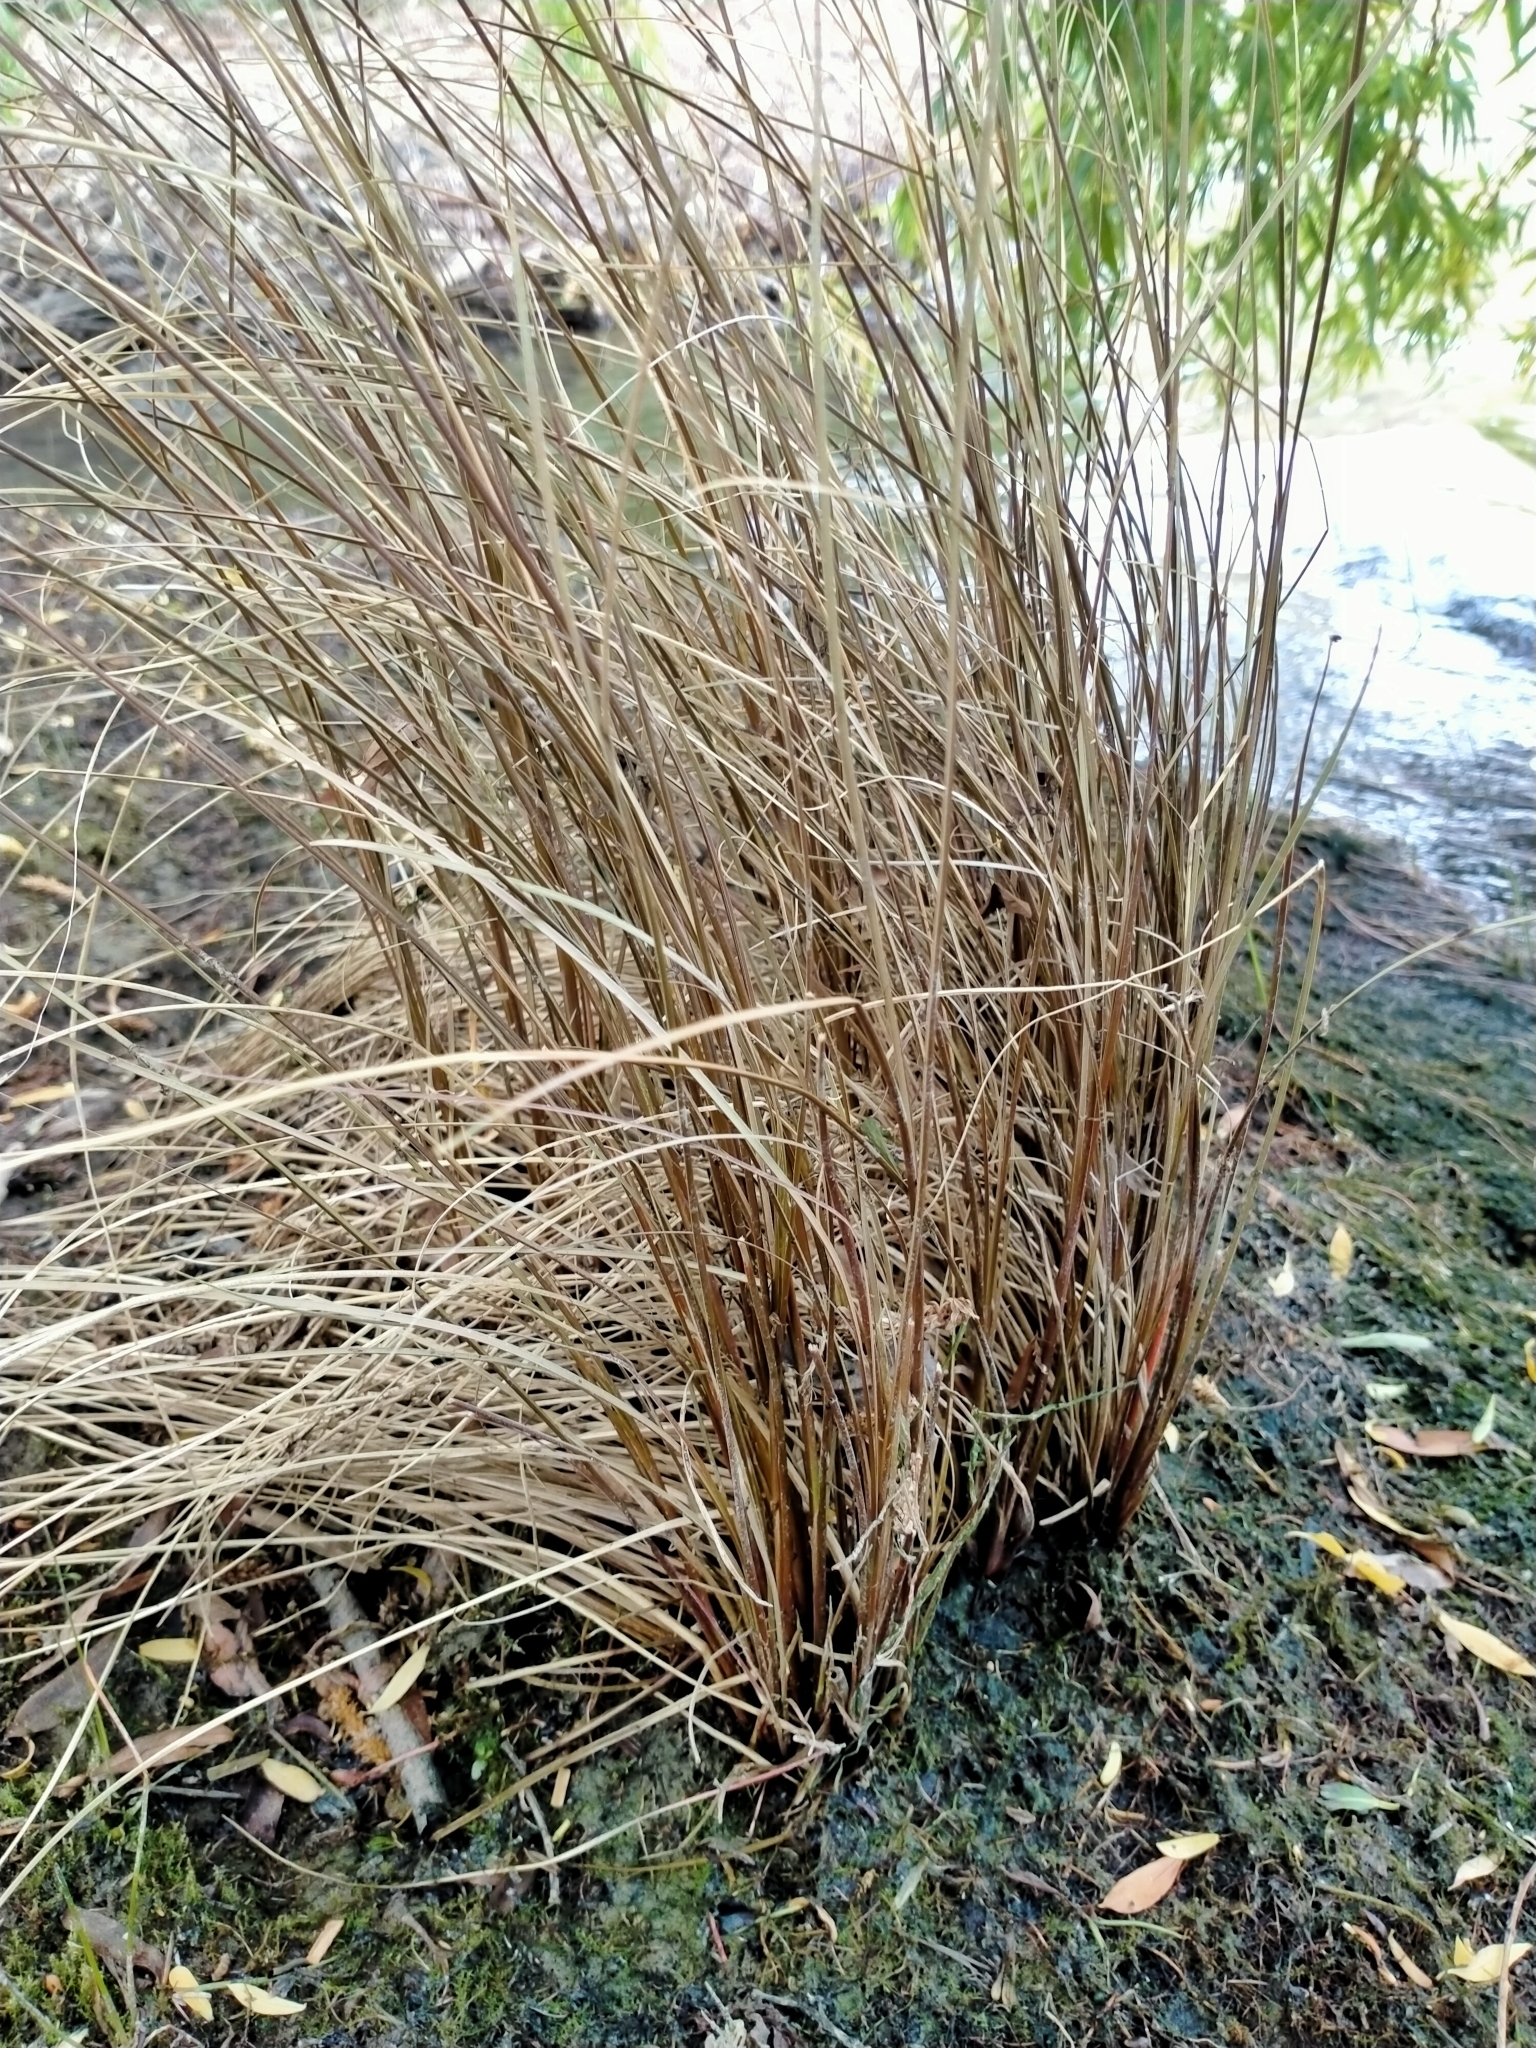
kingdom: Plantae
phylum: Tracheophyta
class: Liliopsida
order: Poales
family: Cyperaceae
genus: Carex
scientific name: Carex buchananii
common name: Leatherleaf sedge
